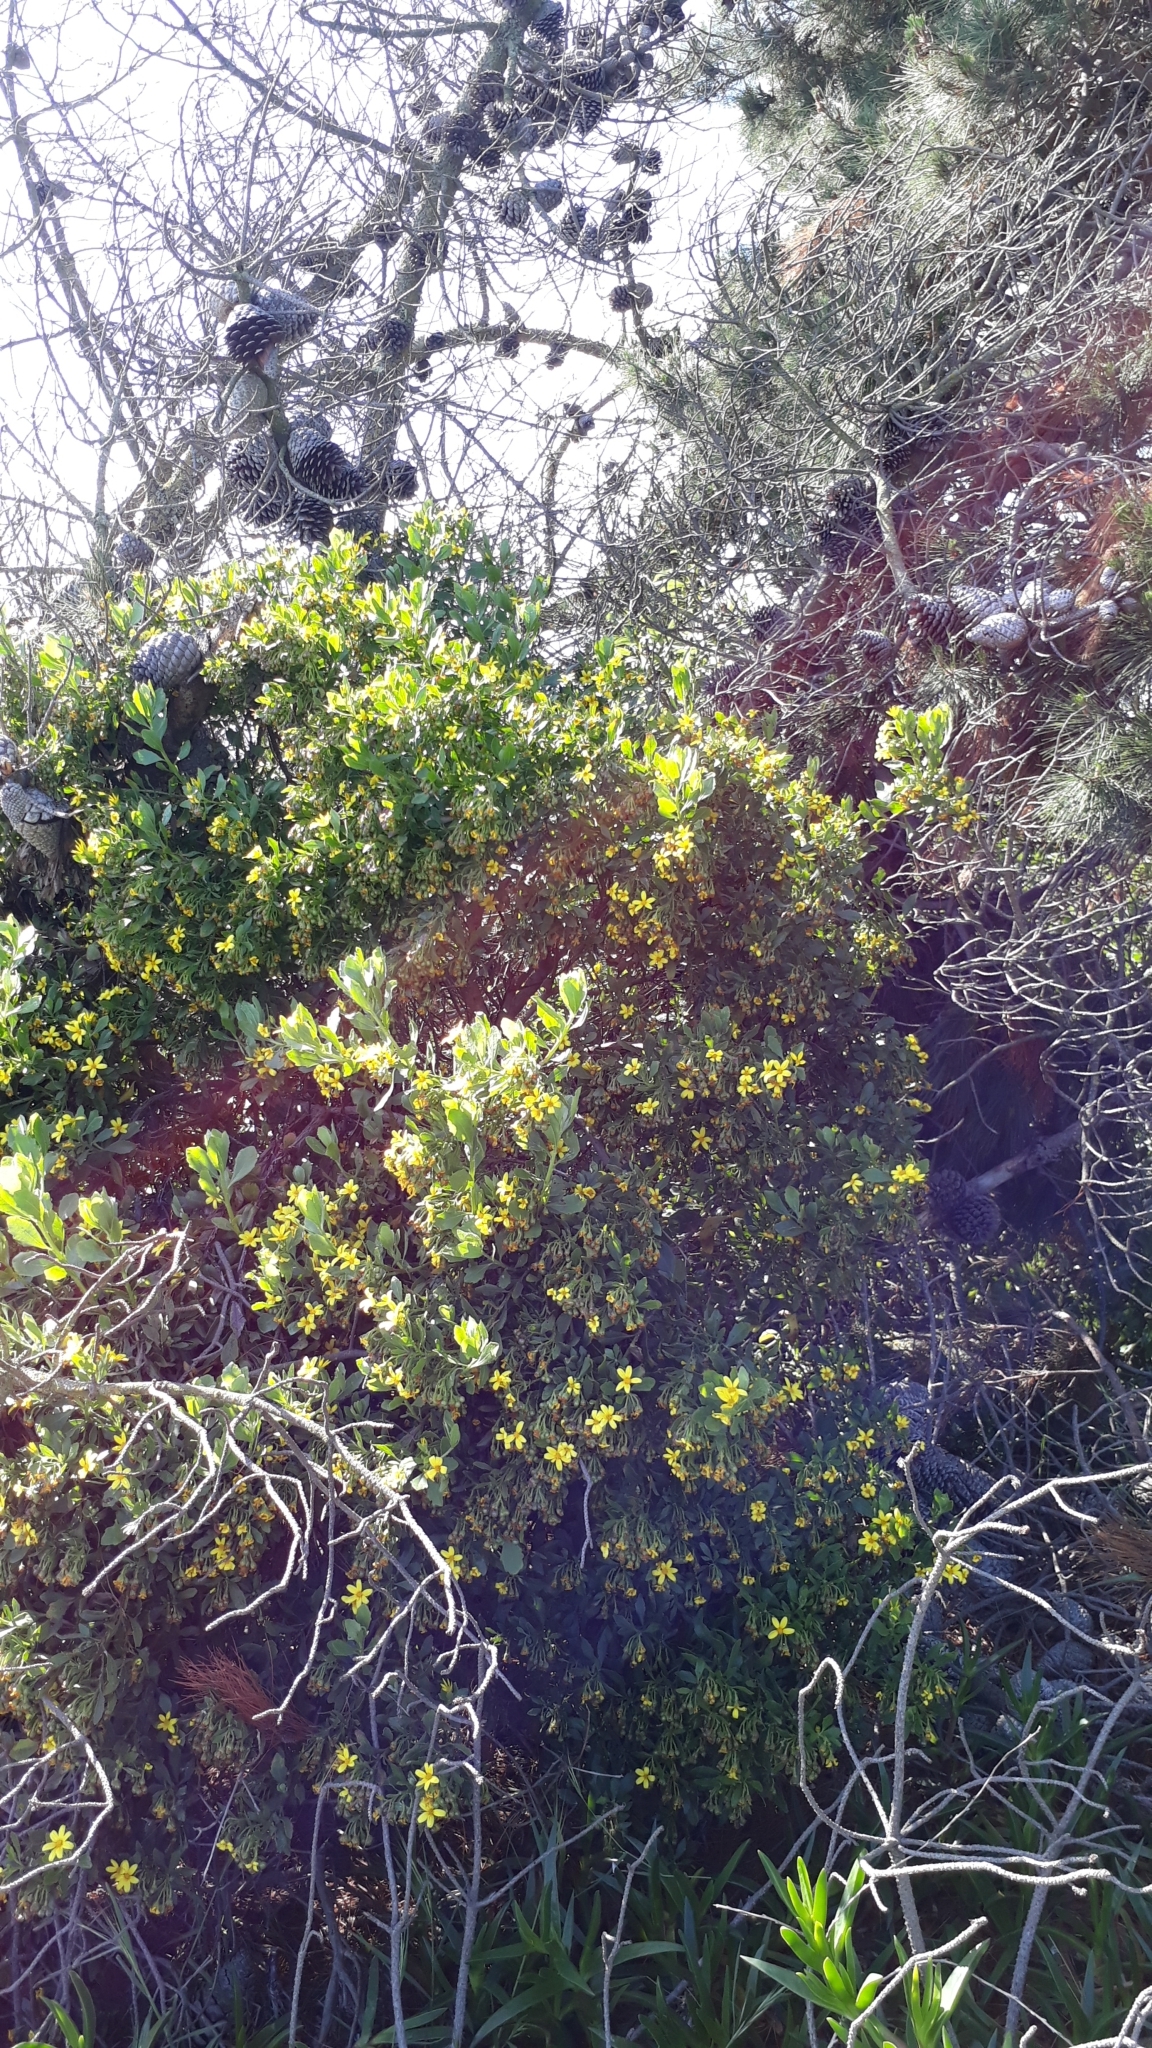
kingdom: Plantae
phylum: Tracheophyta
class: Magnoliopsida
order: Asterales
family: Asteraceae
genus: Osteospermum
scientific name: Osteospermum moniliferum
